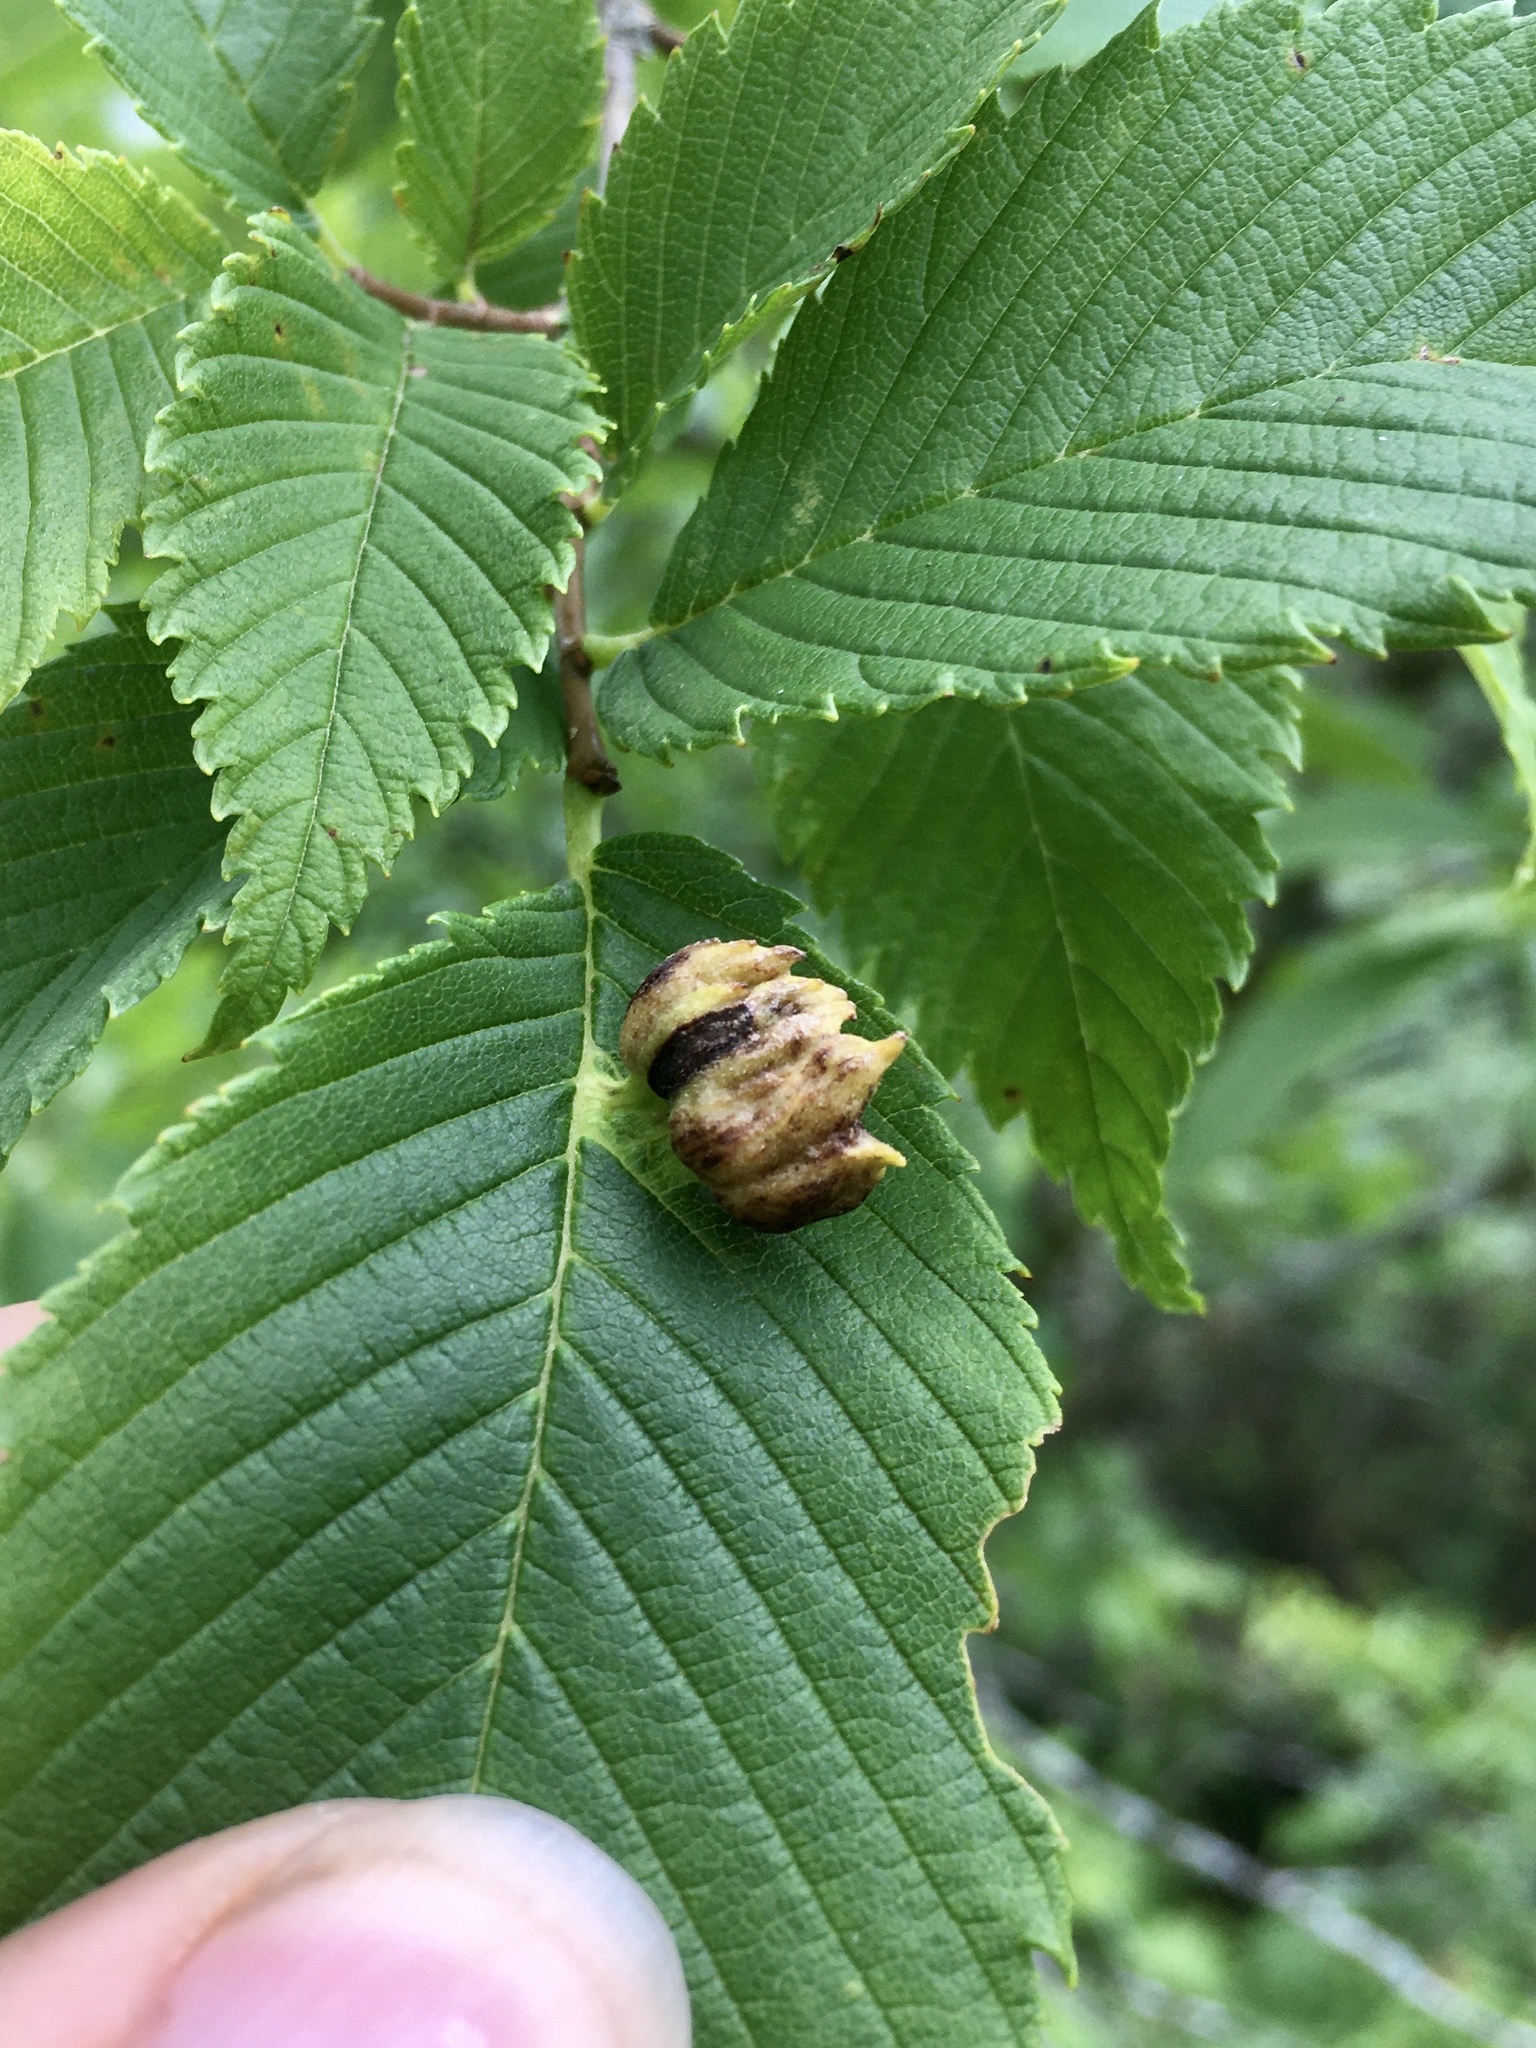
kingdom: Animalia
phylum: Arthropoda
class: Insecta
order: Hemiptera
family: Aphididae
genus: Colopha
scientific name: Colopha ulmicola
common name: Elm cockscombgall aphid
